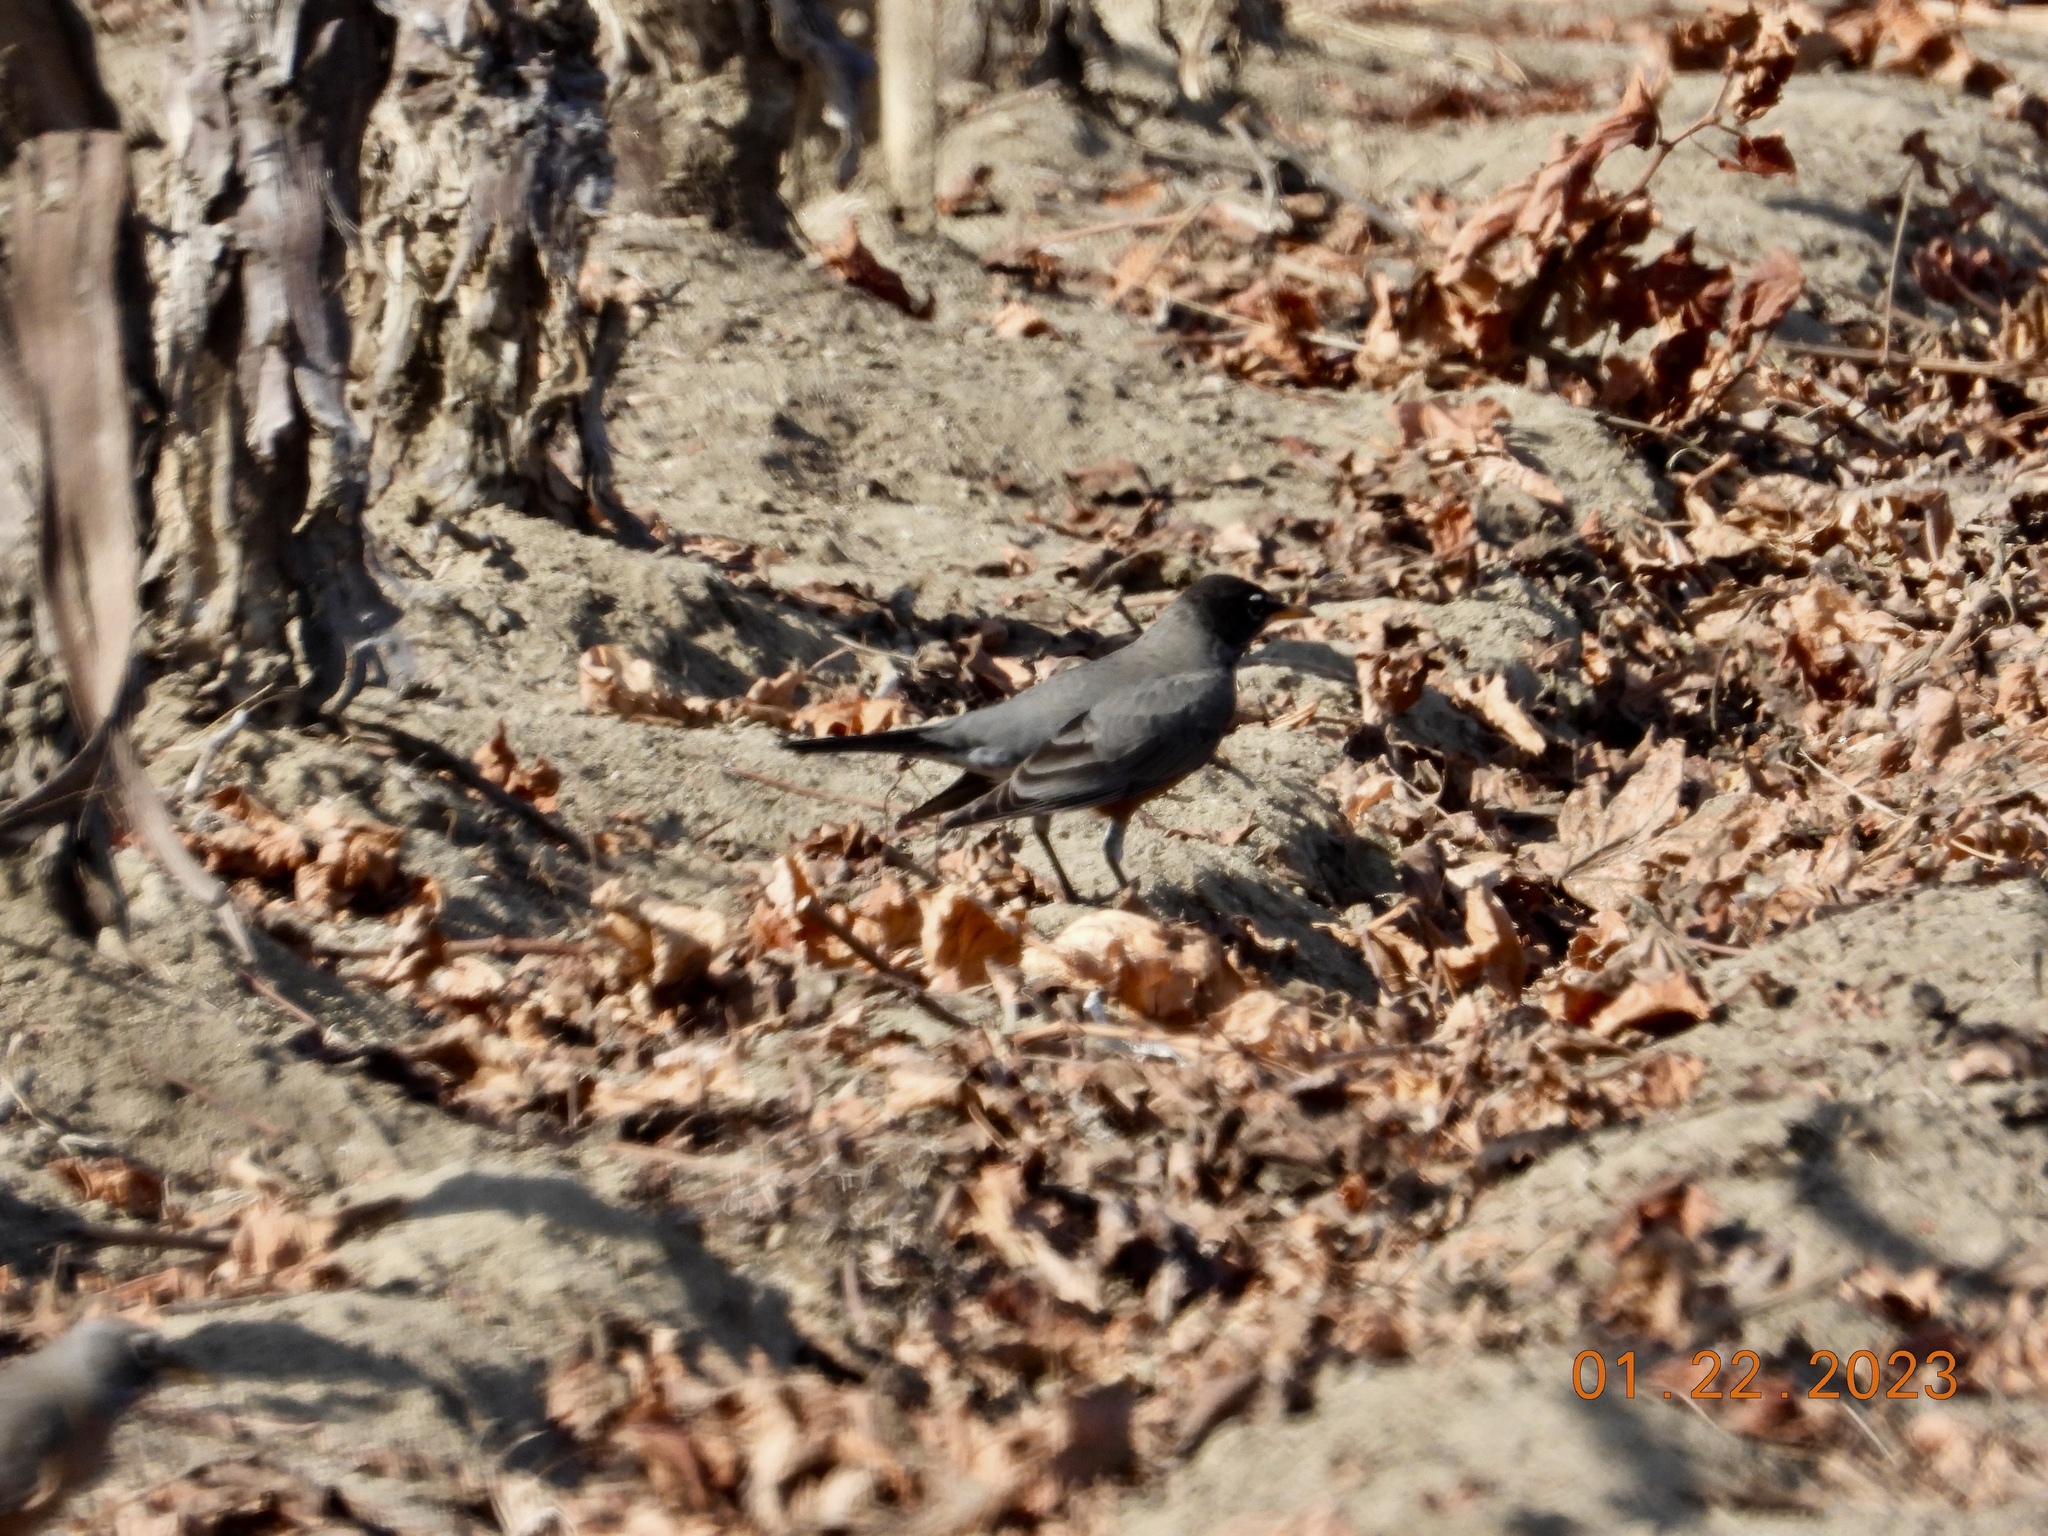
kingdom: Animalia
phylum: Chordata
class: Aves
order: Passeriformes
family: Turdidae
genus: Turdus
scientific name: Turdus migratorius
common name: American robin
